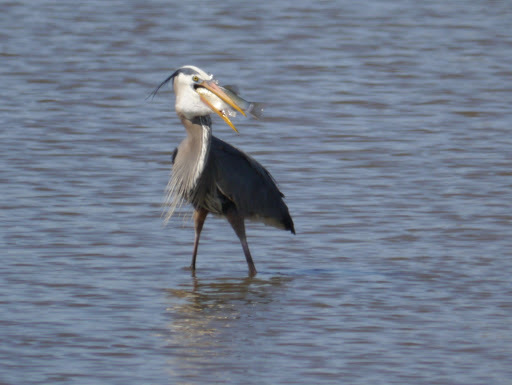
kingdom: Animalia
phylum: Chordata
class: Aves
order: Pelecaniformes
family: Ardeidae
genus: Ardea
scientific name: Ardea herodias
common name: Great blue heron
